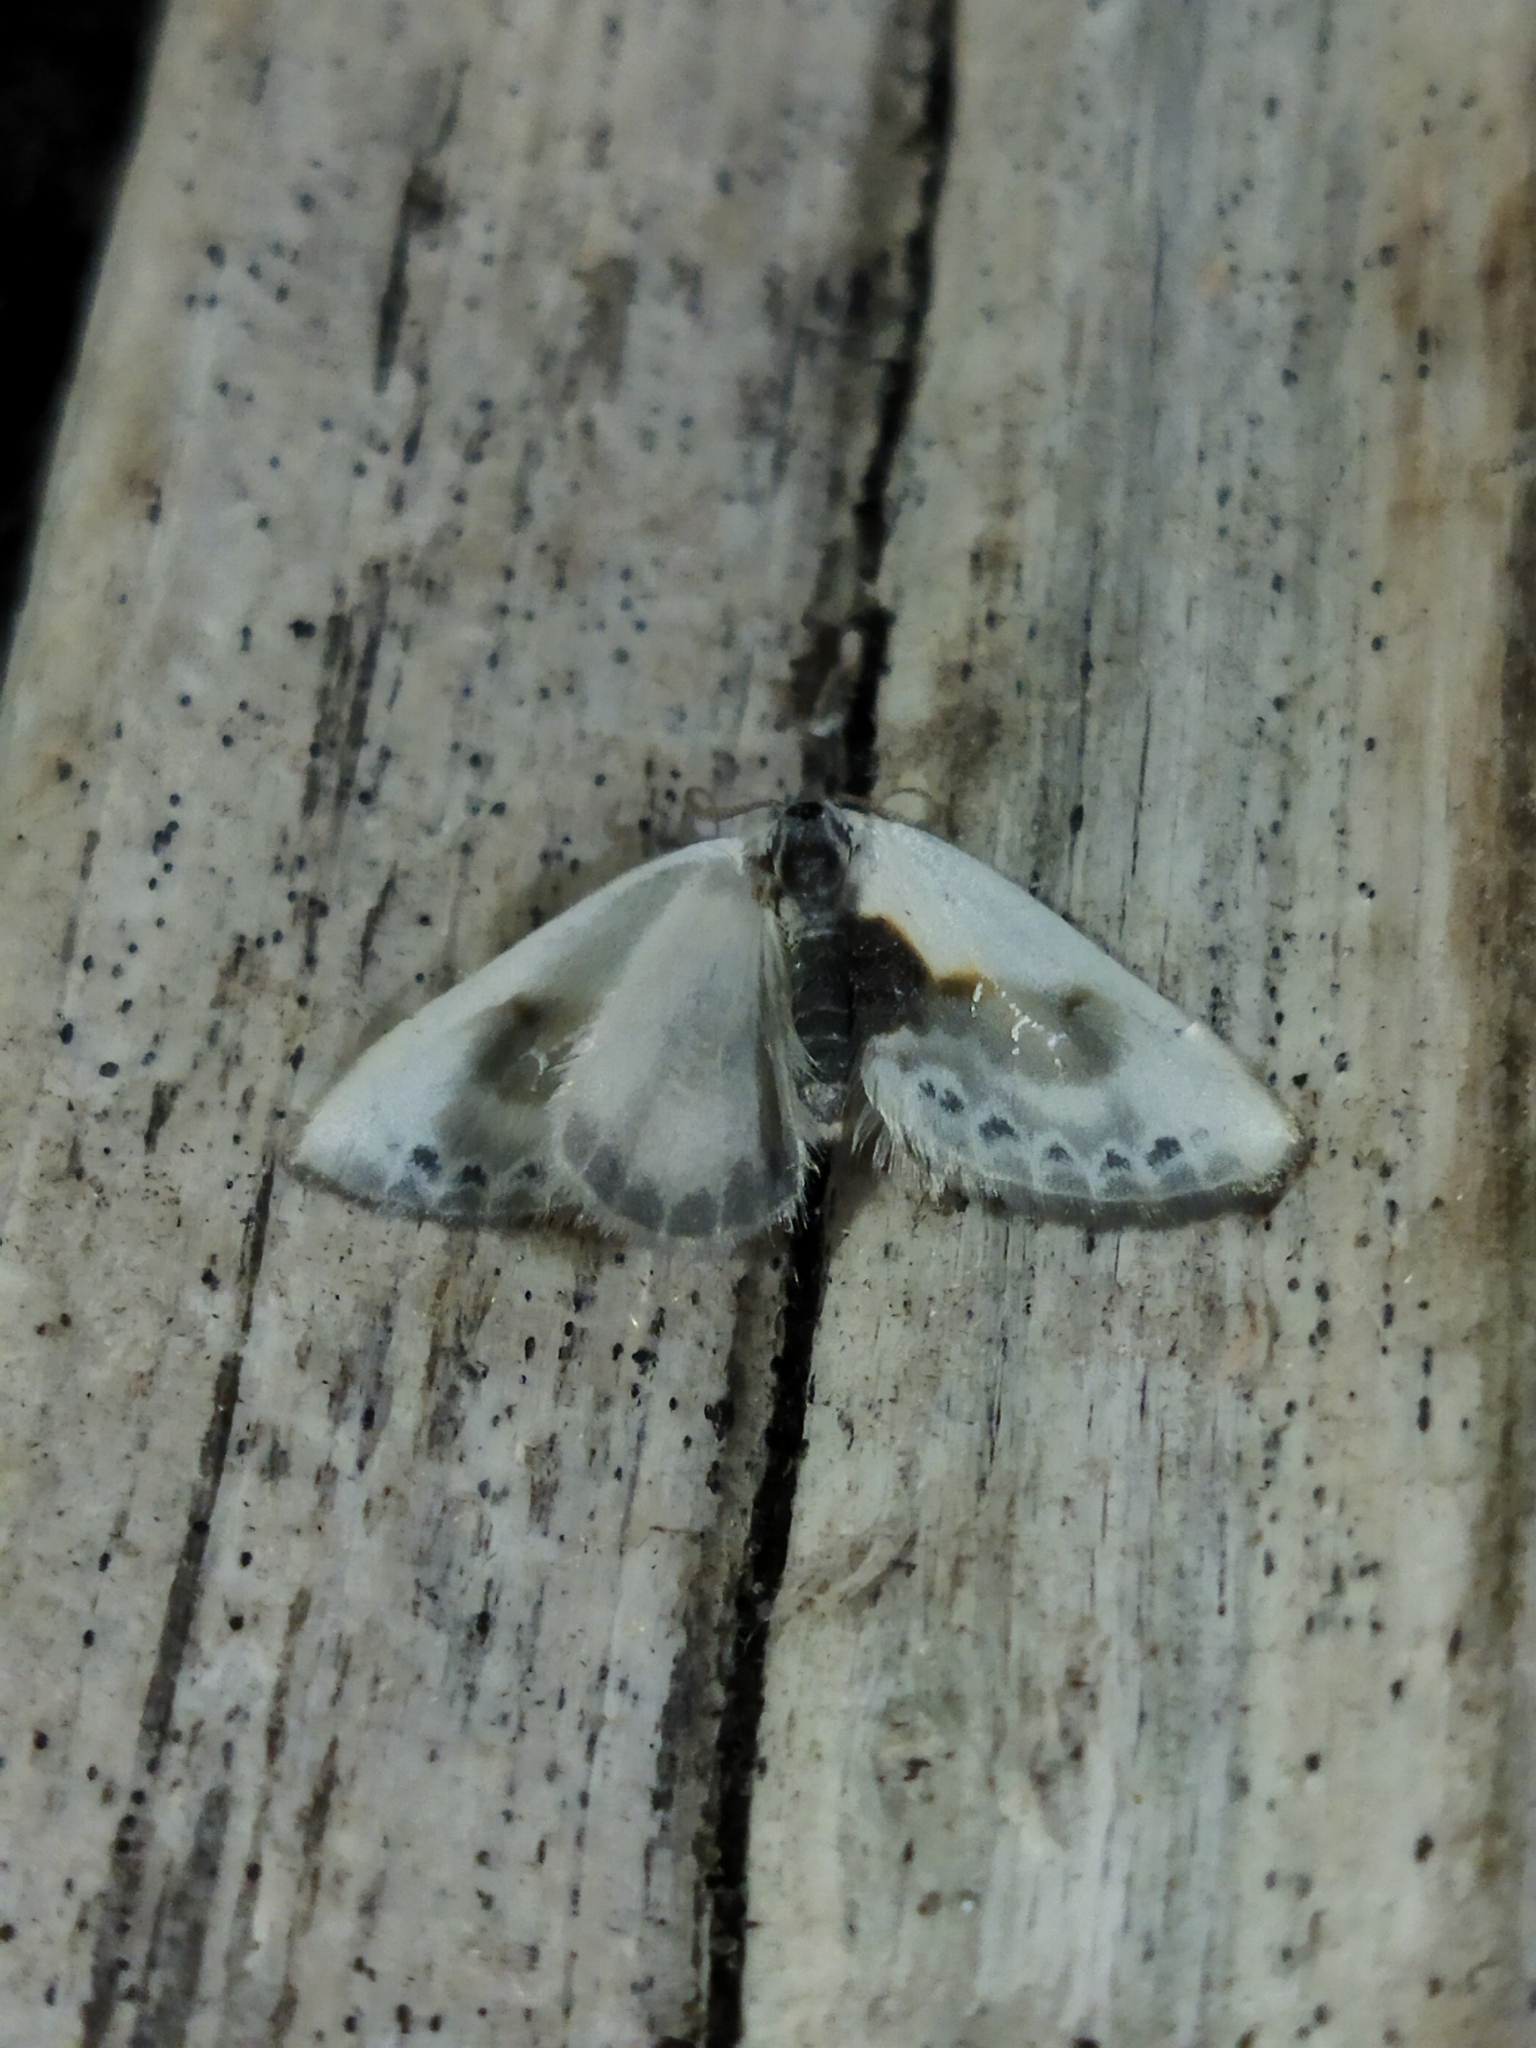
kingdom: Animalia
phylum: Arthropoda
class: Insecta
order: Lepidoptera
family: Drepanidae
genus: Cilix
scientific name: Cilix glaucata
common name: Chinese character
